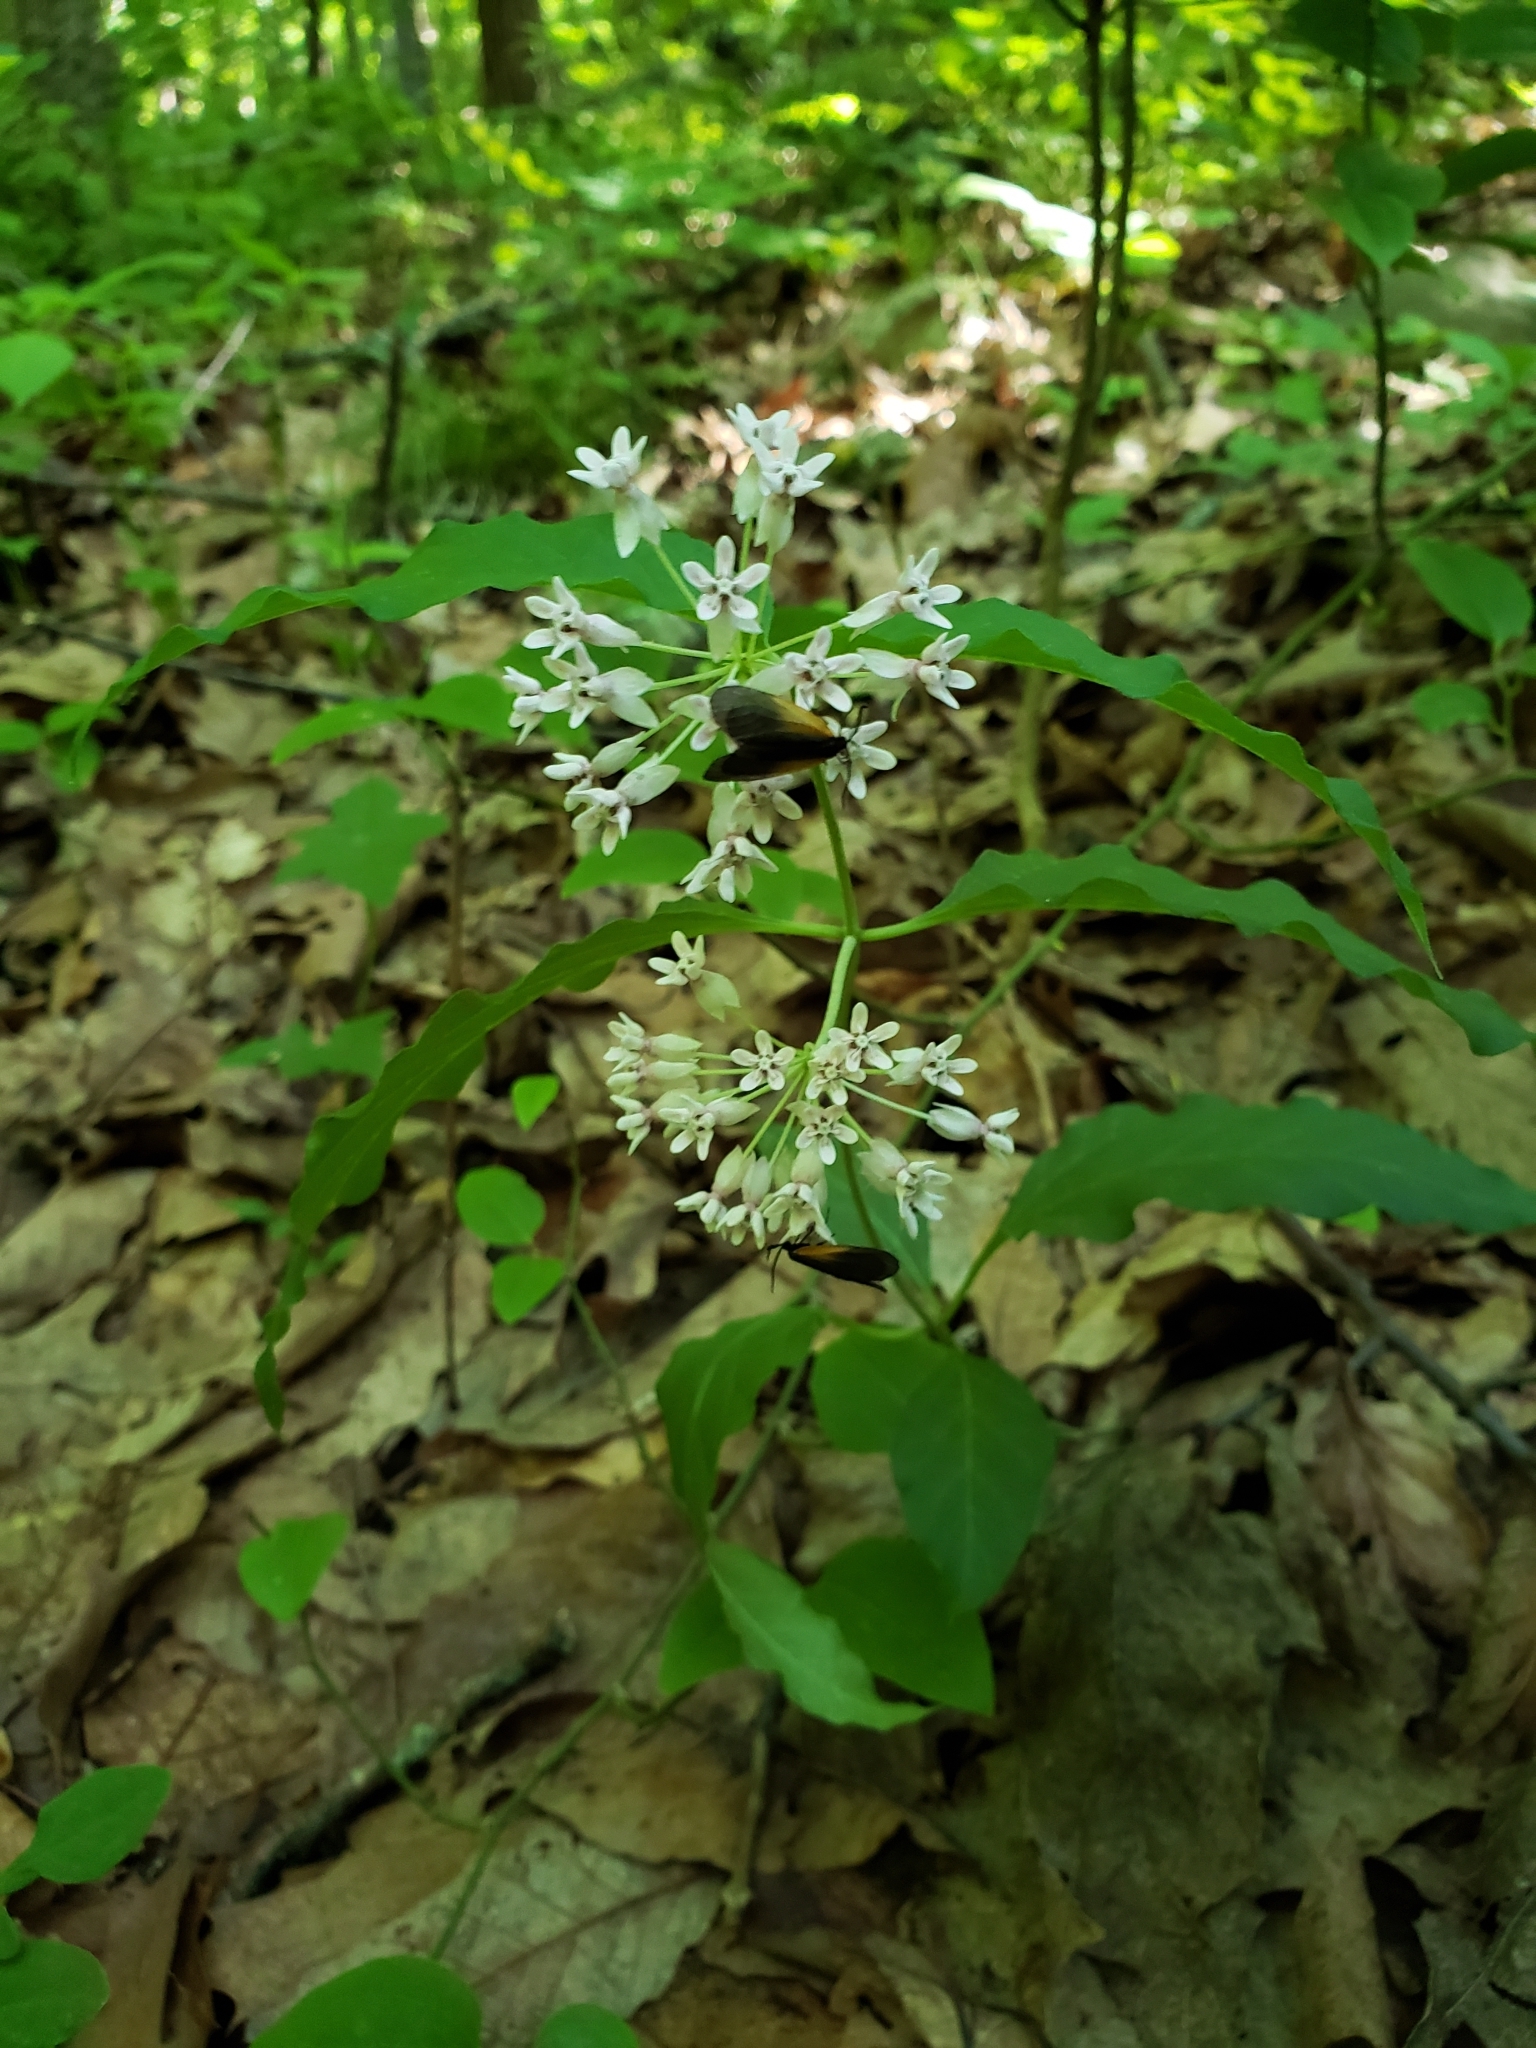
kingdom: Animalia
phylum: Arthropoda
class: Insecta
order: Lepidoptera
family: Zygaenidae
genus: Malthaca
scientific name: Malthaca dimidiata
